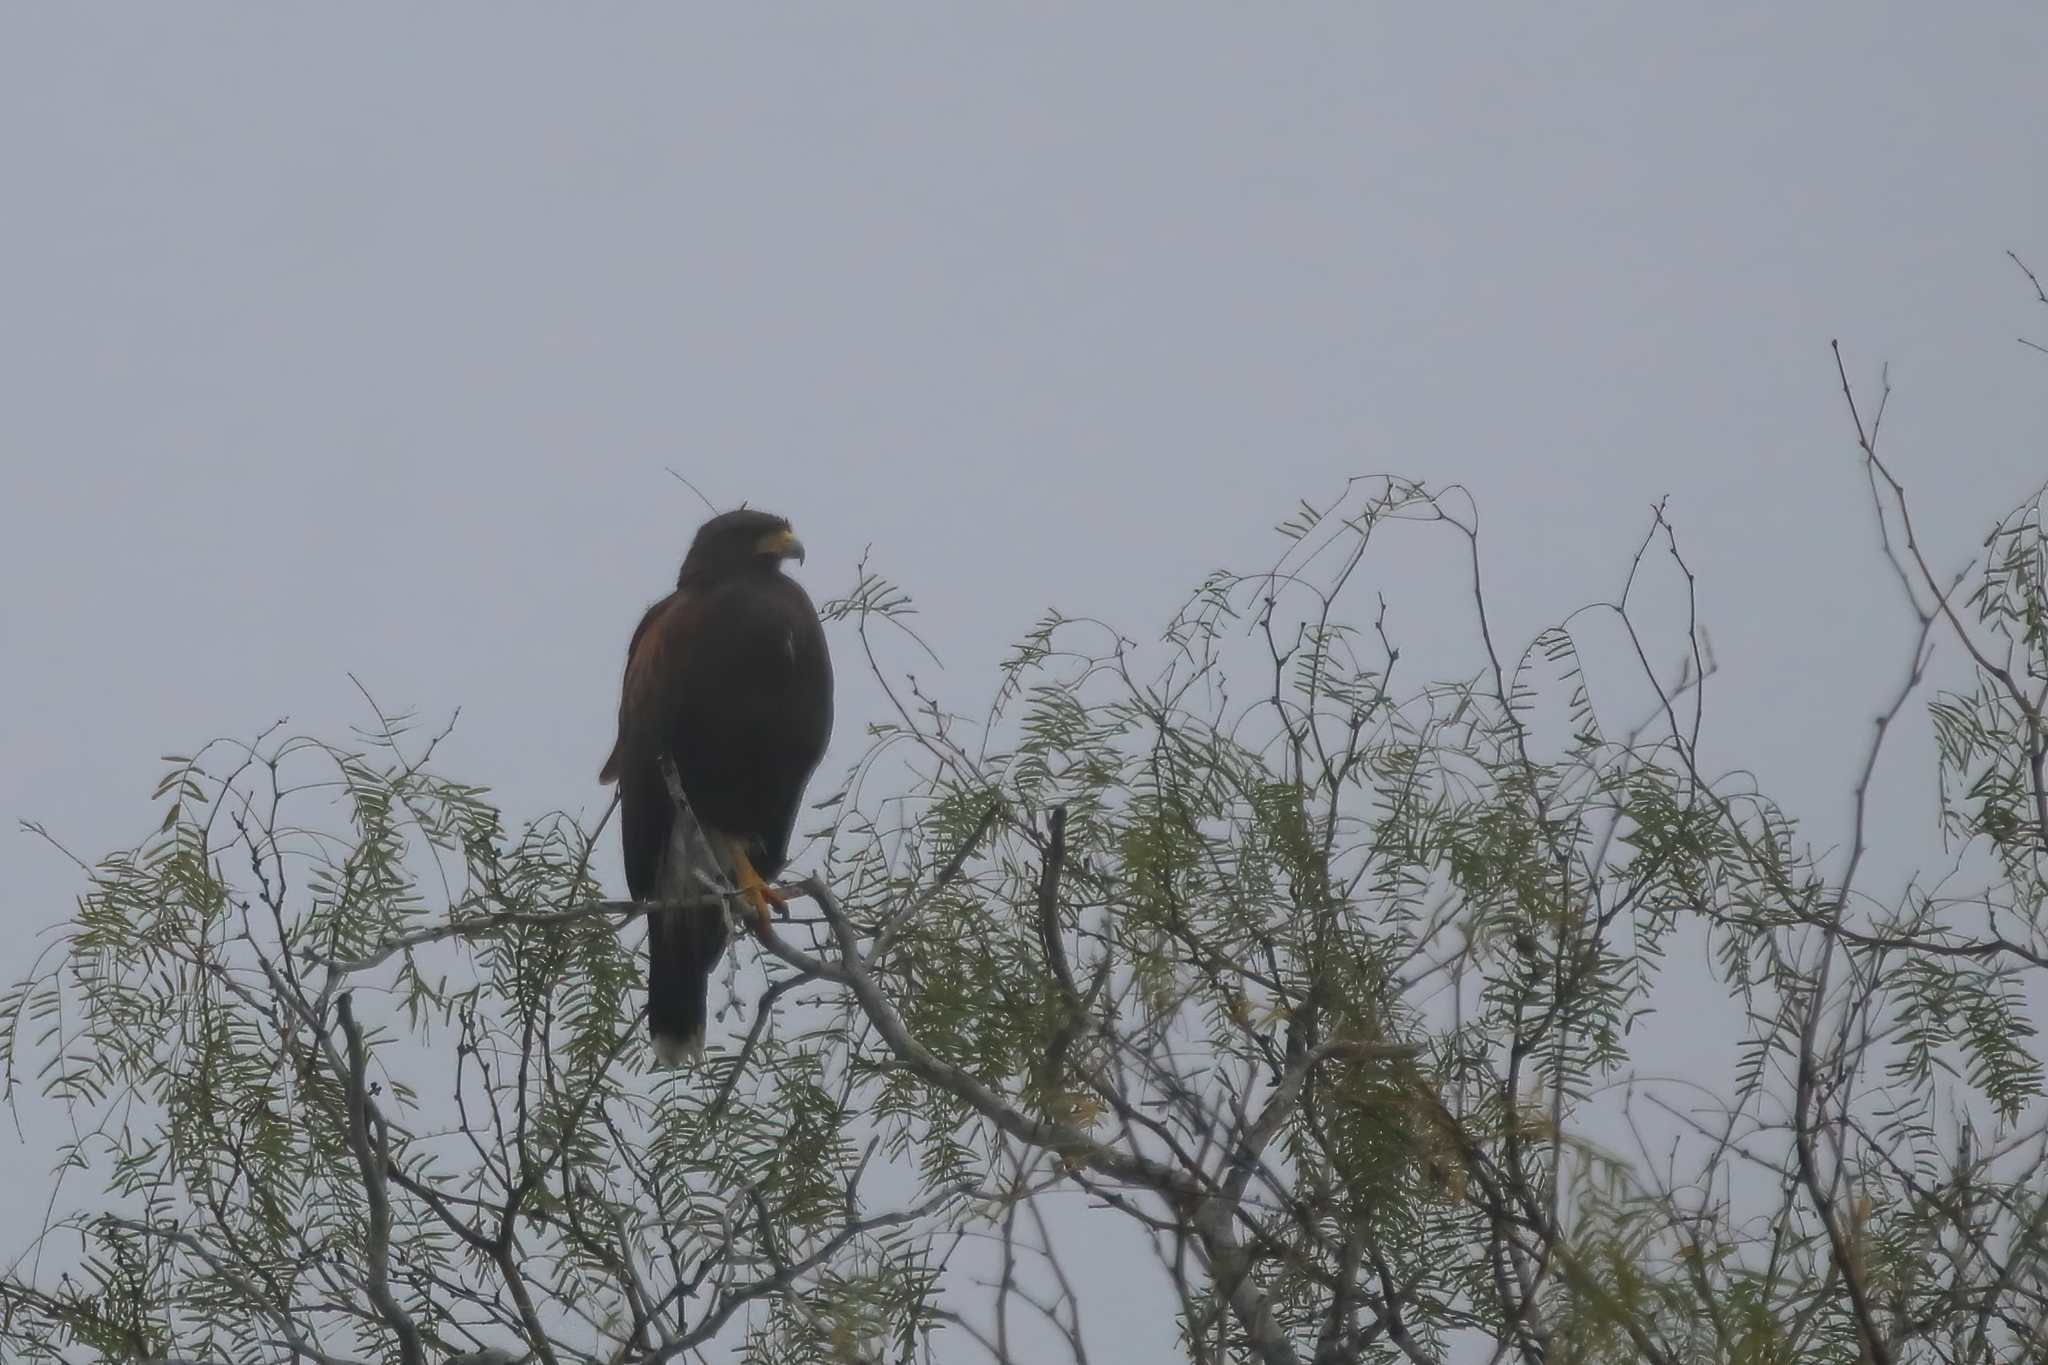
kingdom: Animalia
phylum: Chordata
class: Aves
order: Accipitriformes
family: Accipitridae
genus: Parabuteo
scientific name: Parabuteo unicinctus
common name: Harris's hawk
